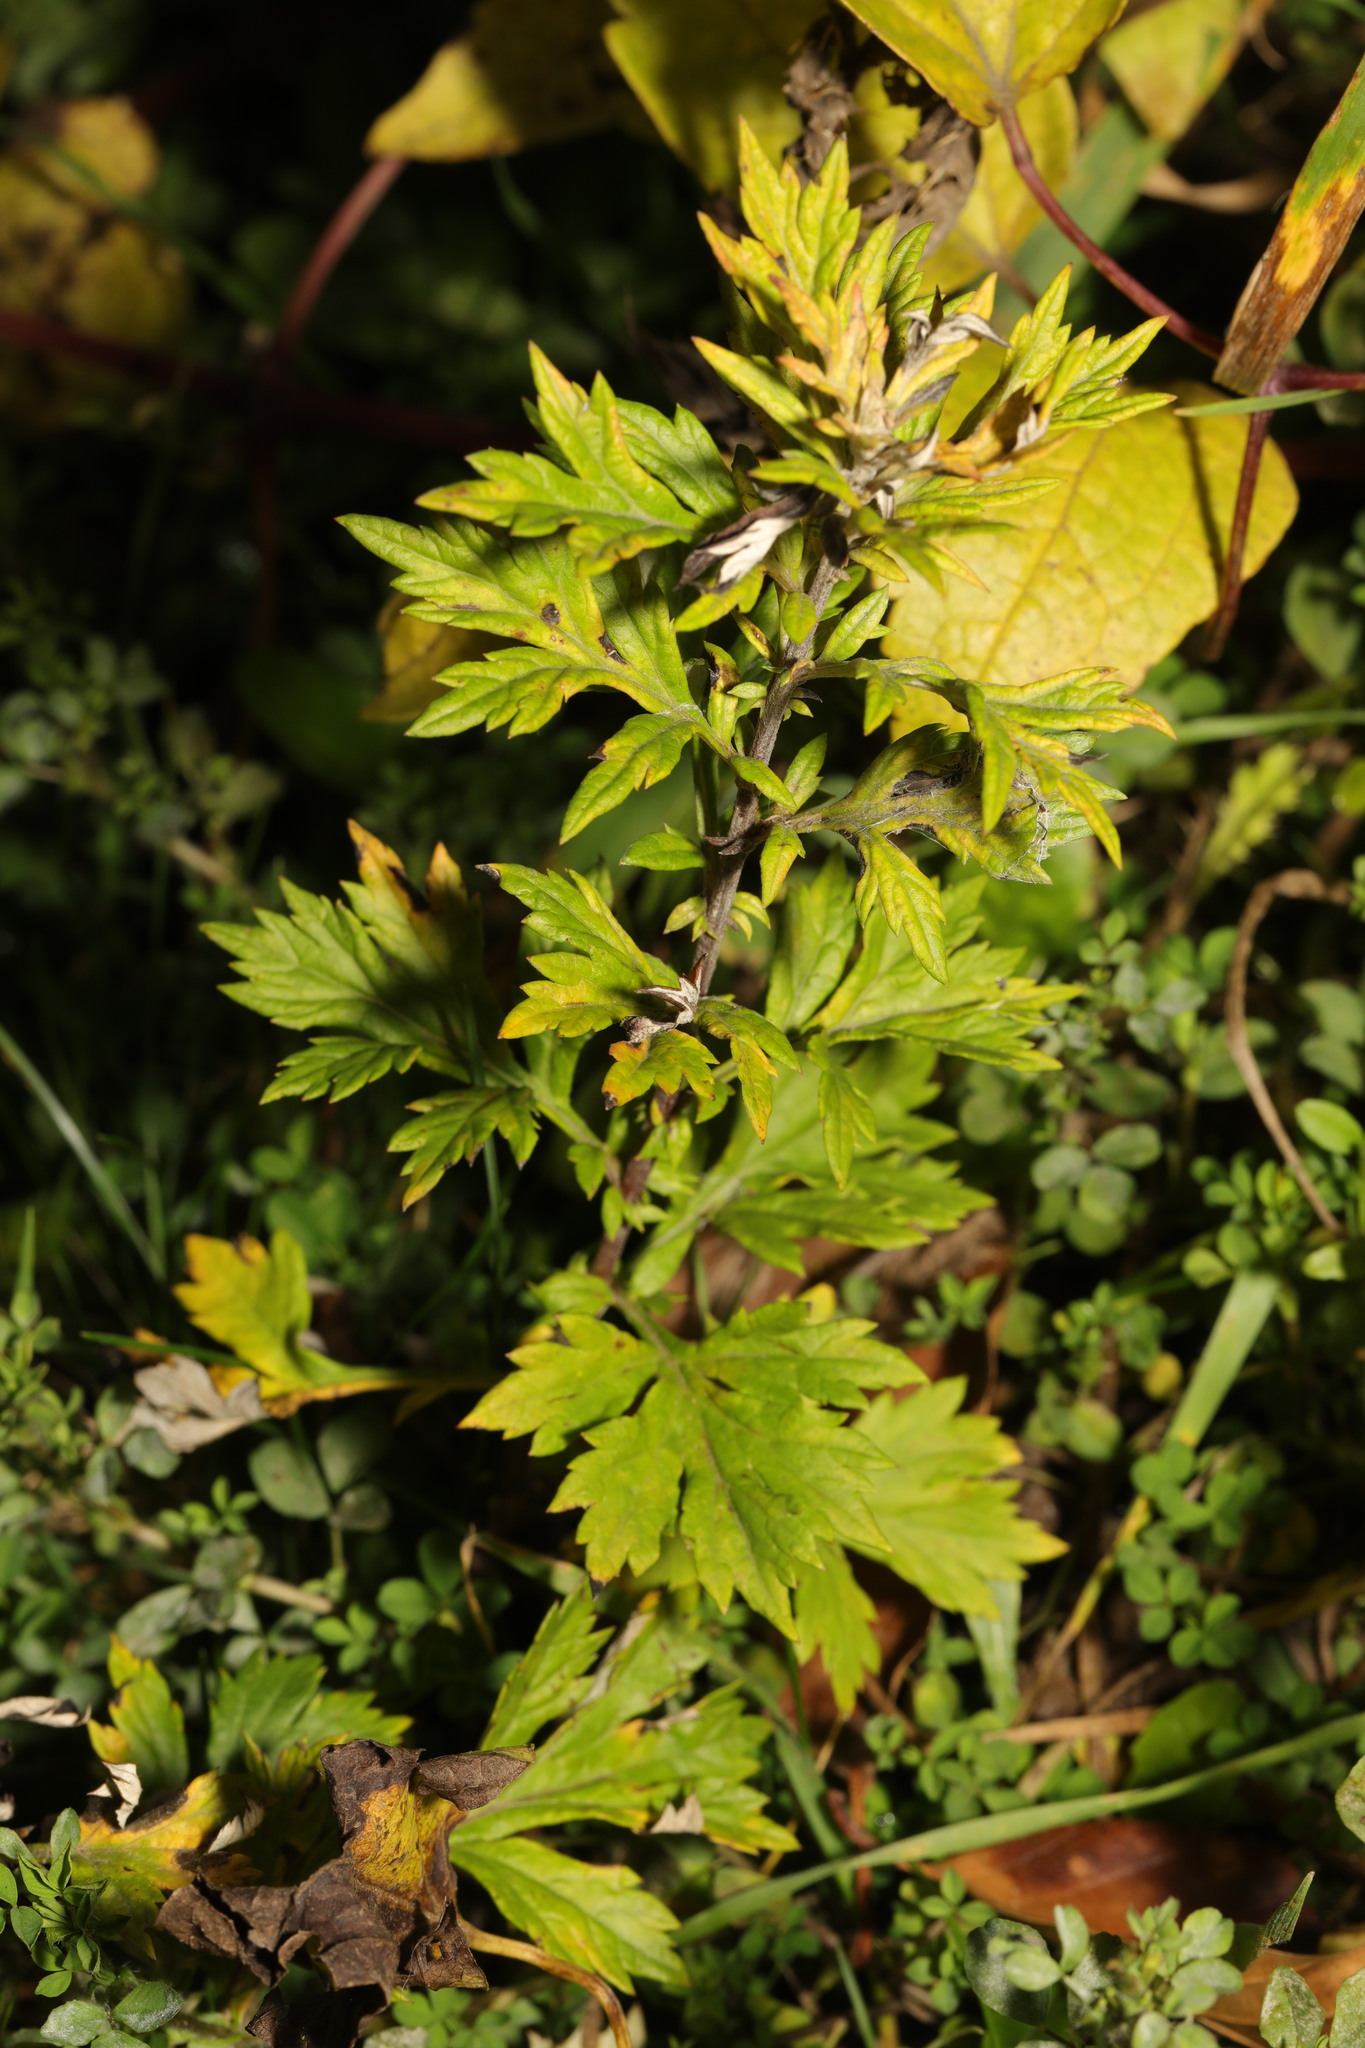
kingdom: Plantae
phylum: Tracheophyta
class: Magnoliopsida
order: Asterales
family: Asteraceae
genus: Artemisia
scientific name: Artemisia vulgaris
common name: Mugwort
